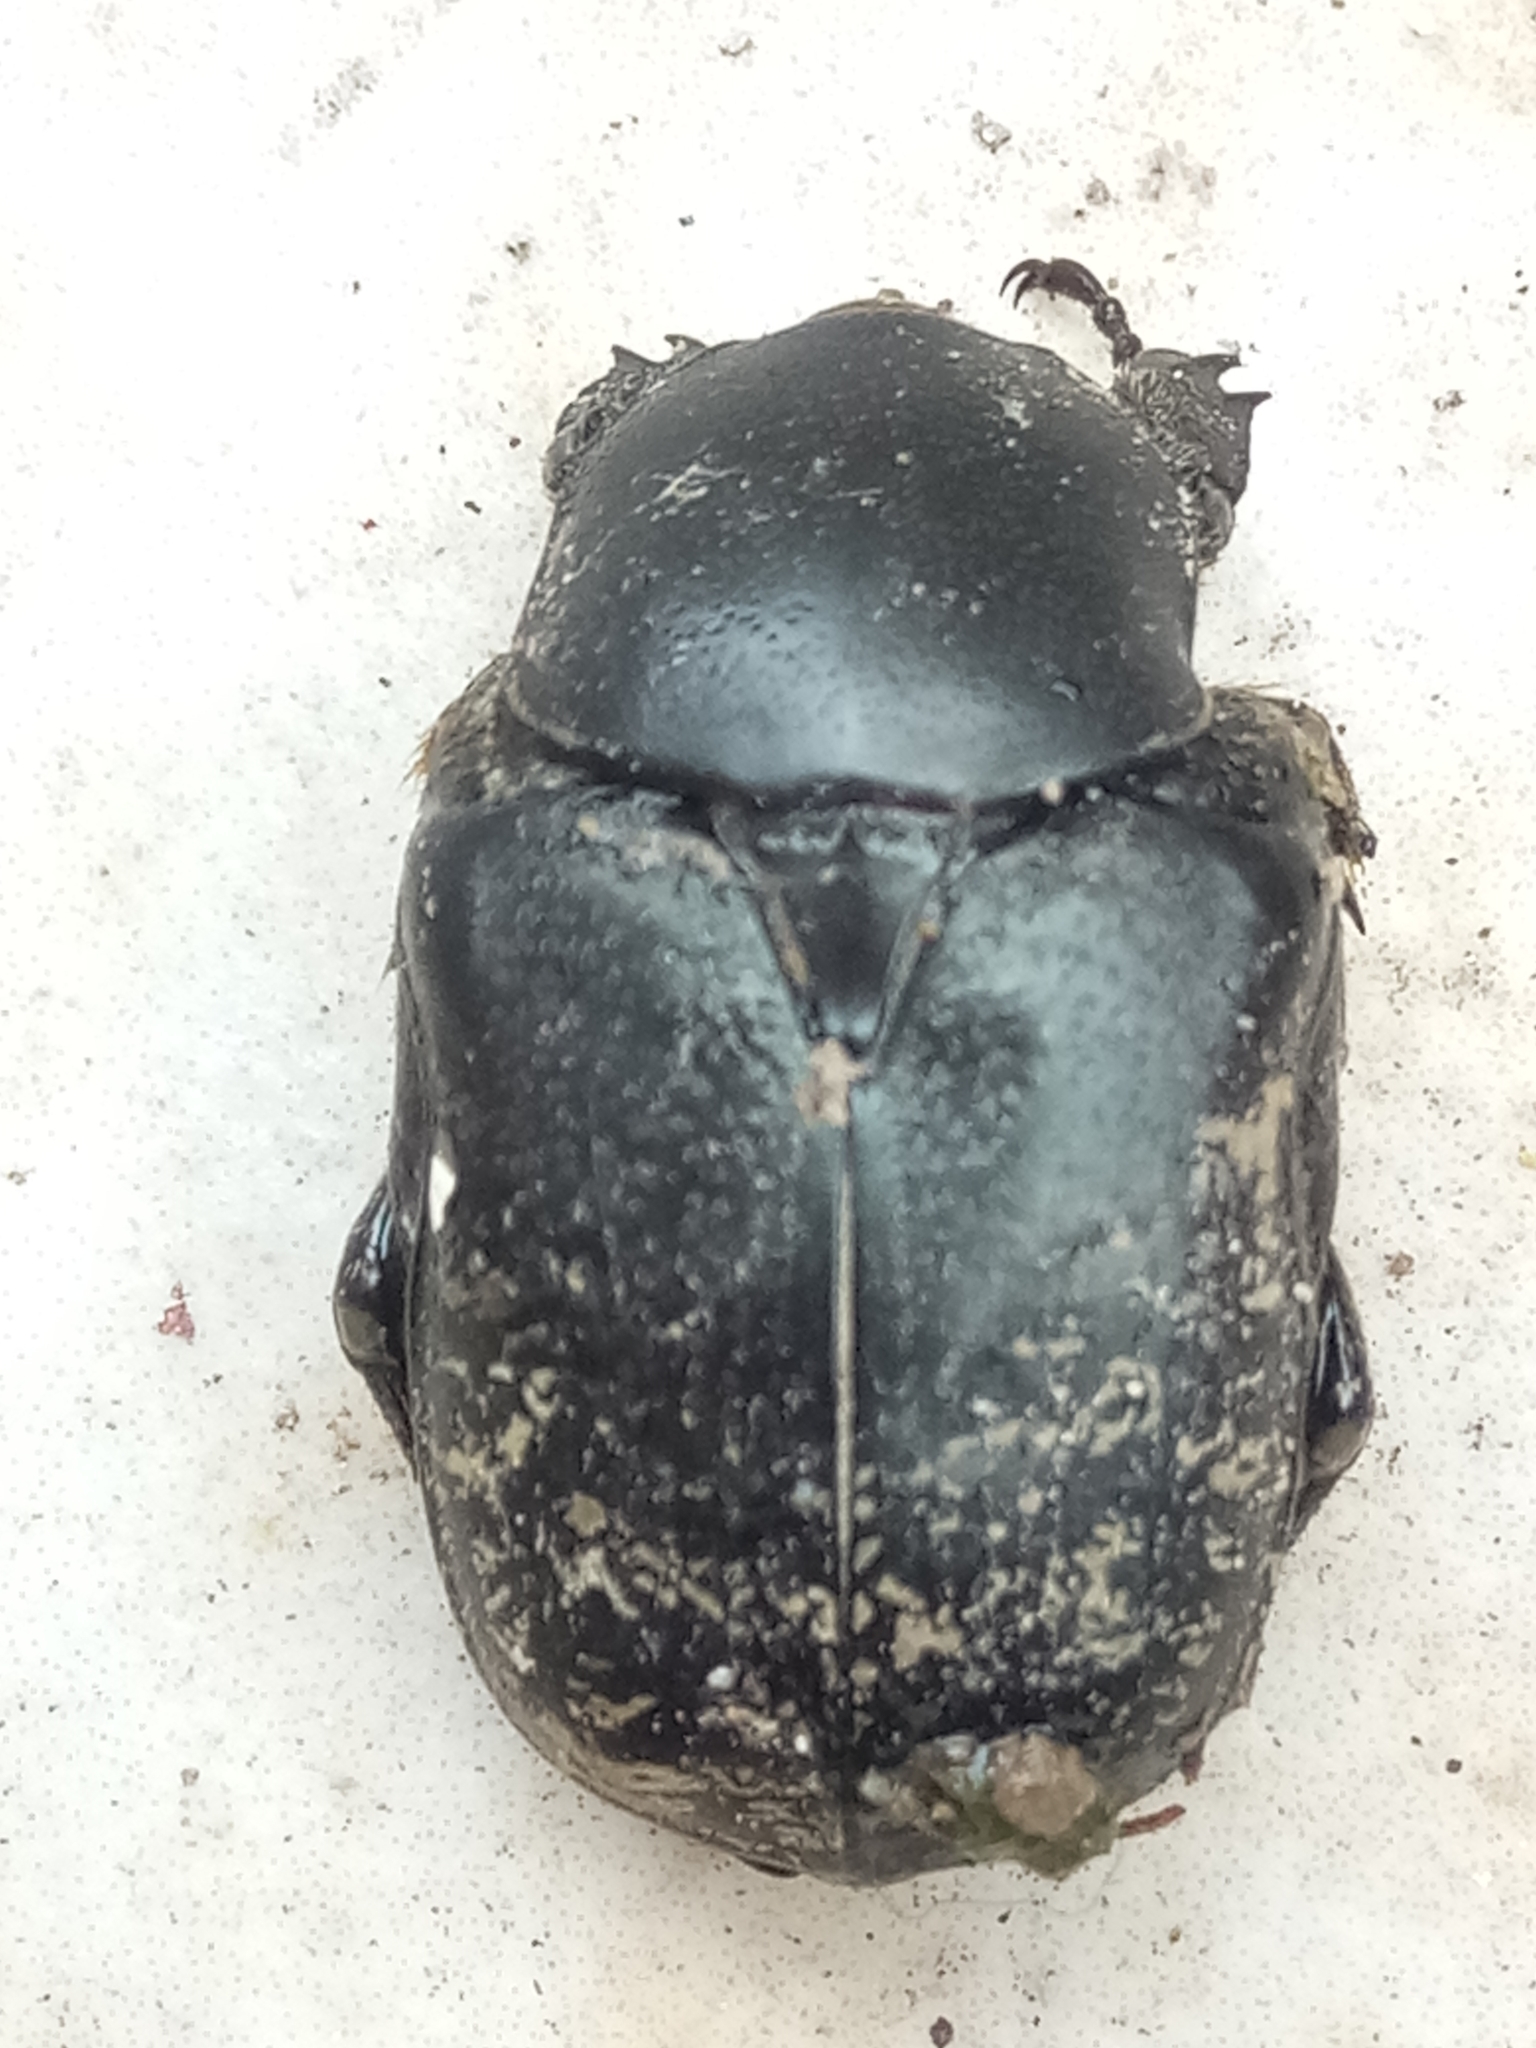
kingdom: Animalia
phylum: Arthropoda
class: Insecta
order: Coleoptera
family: Scarabaeidae
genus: Aethiessa
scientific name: Aethiessa floralis
